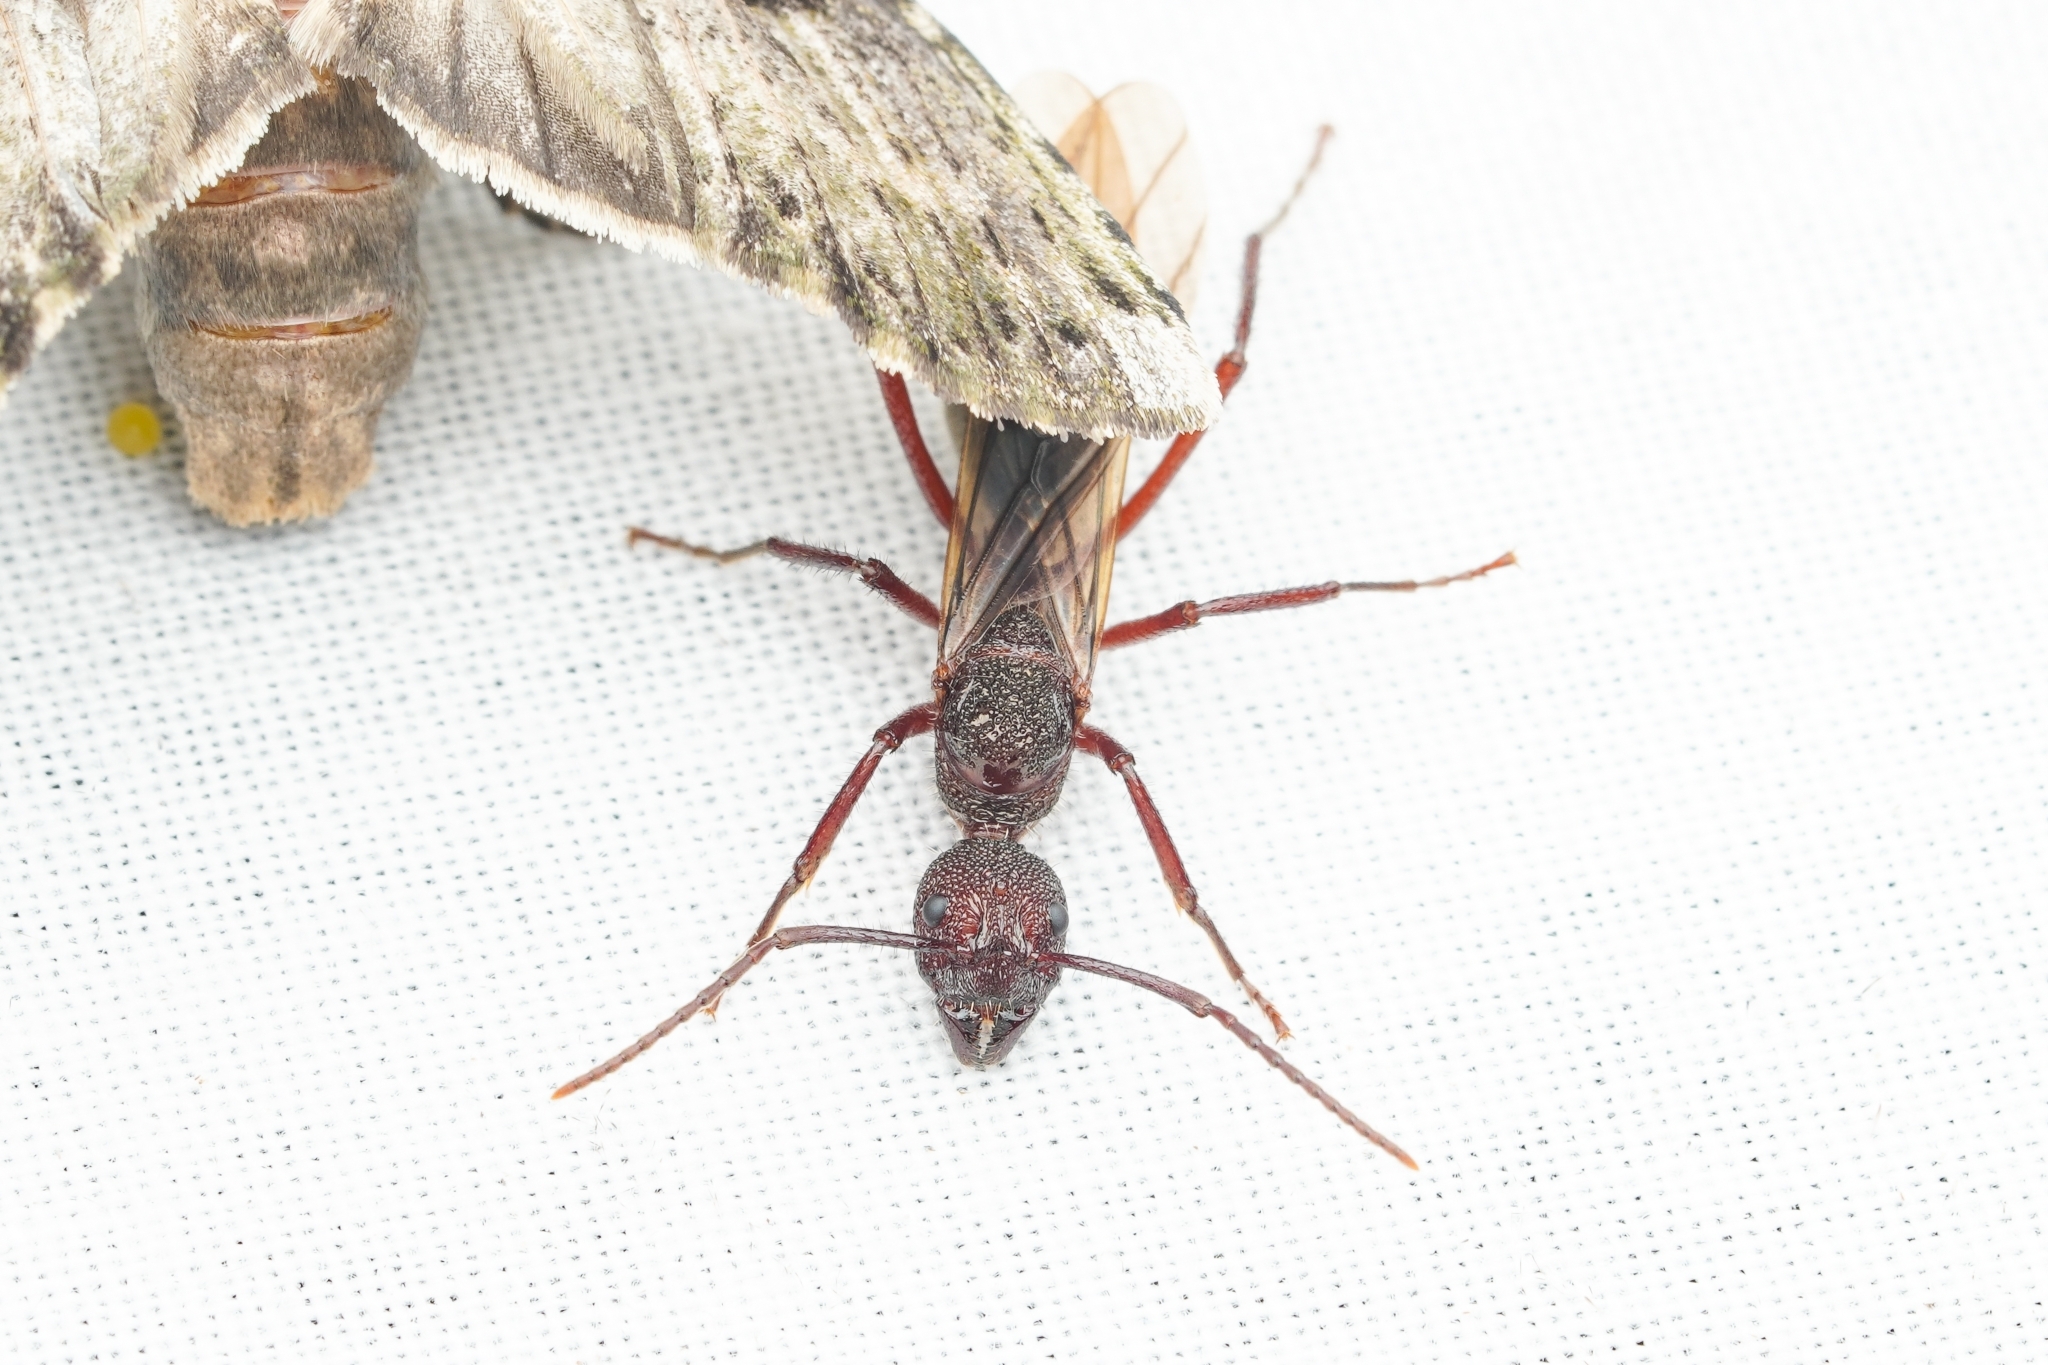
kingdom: Animalia
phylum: Arthropoda
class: Insecta
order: Hymenoptera
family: Formicidae
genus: Dolichoderus
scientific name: Dolichoderus decollatus
